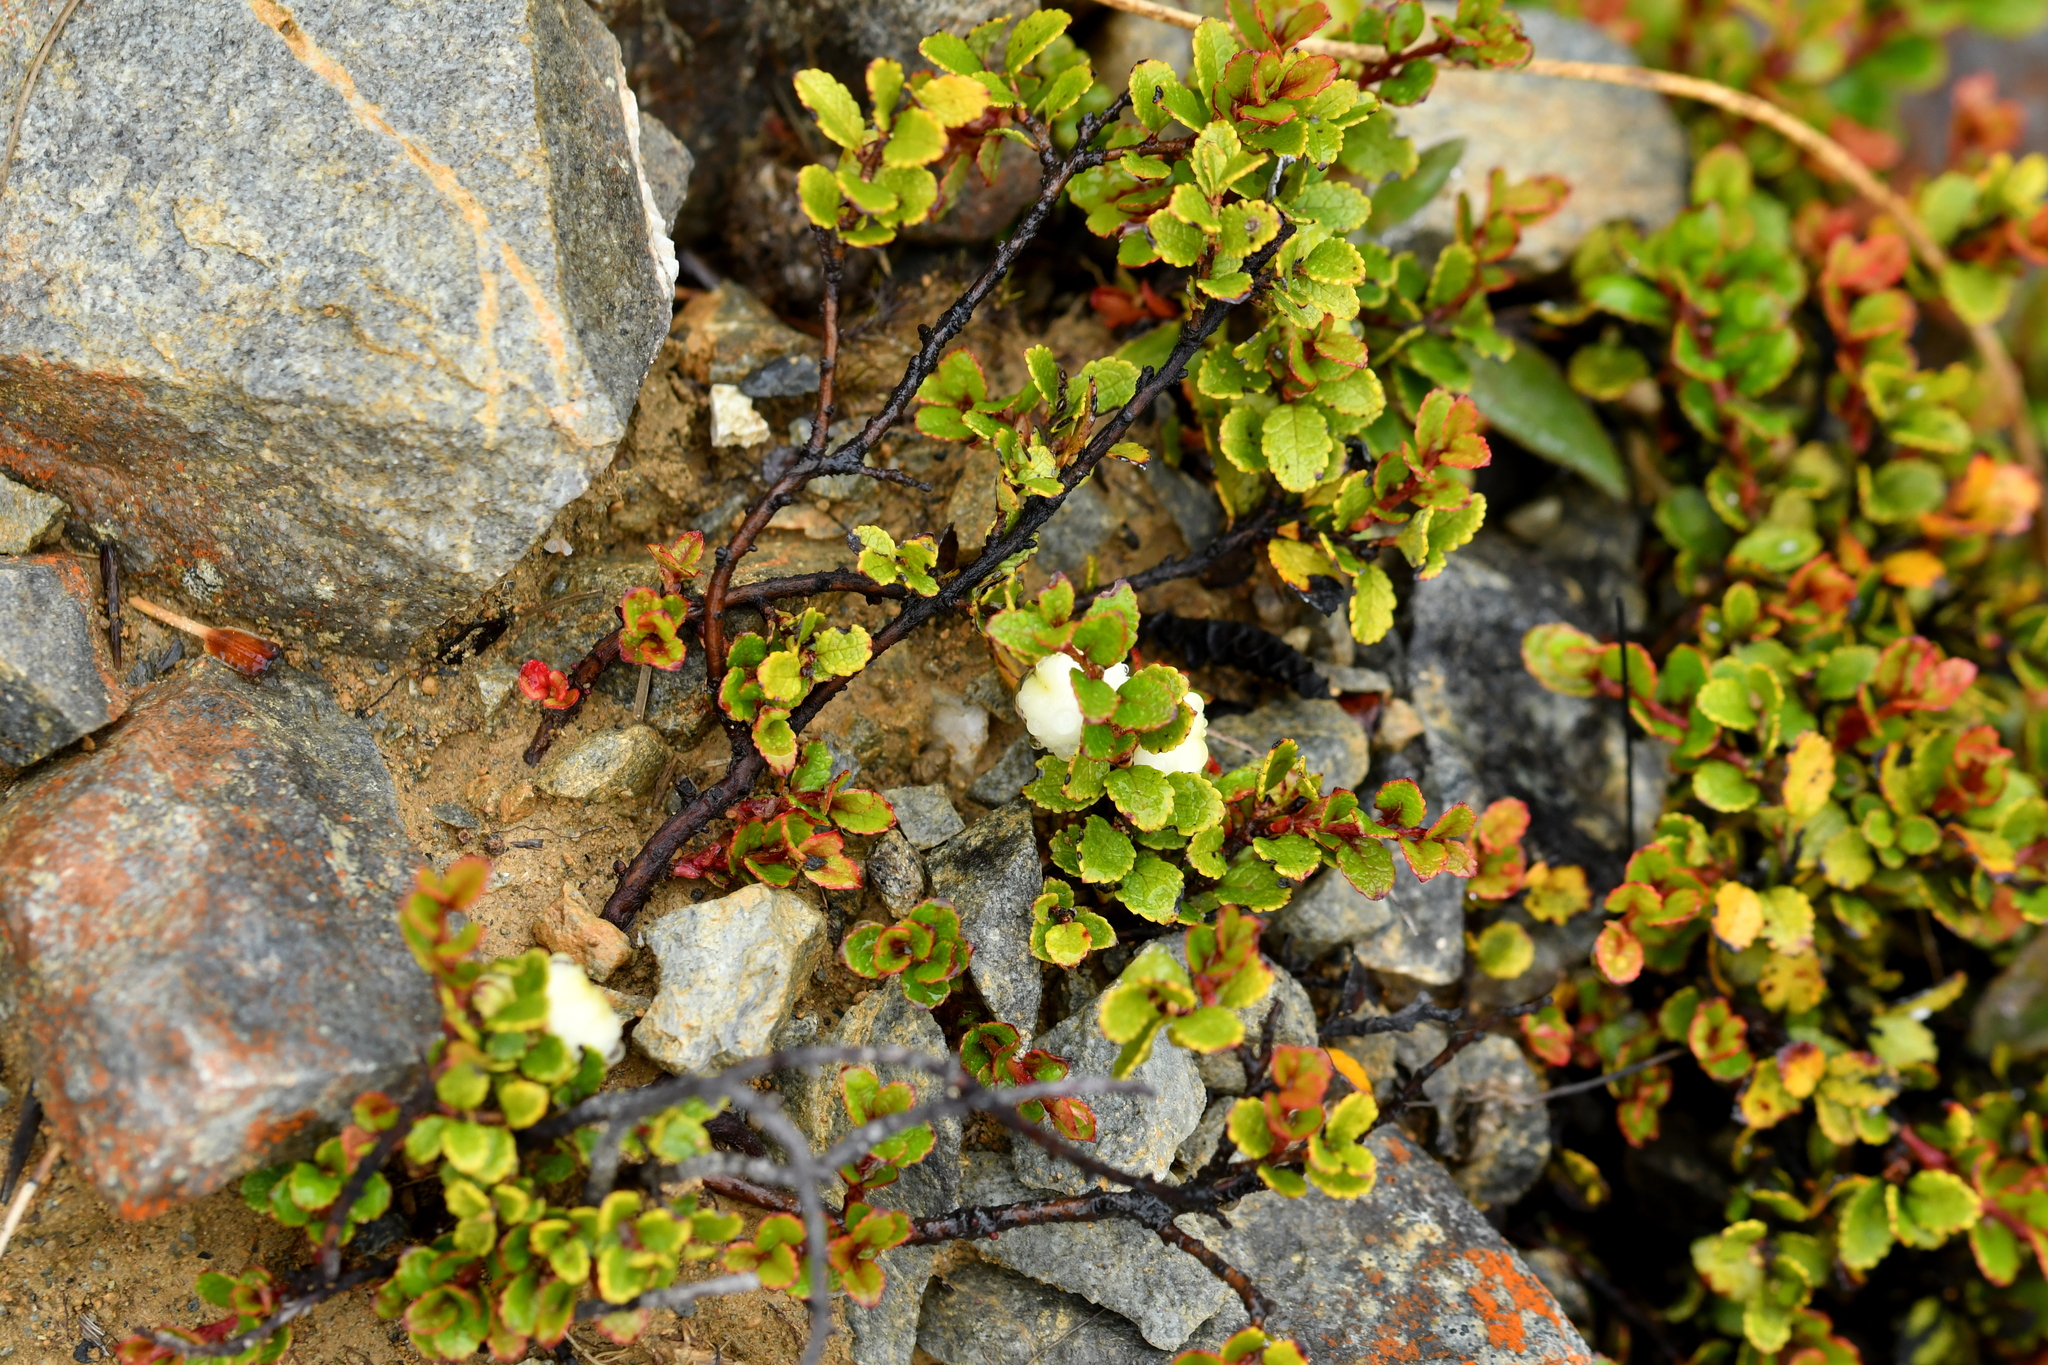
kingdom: Plantae
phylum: Tracheophyta
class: Magnoliopsida
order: Ericales
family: Ericaceae
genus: Gaultheria
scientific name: Gaultheria depressa
